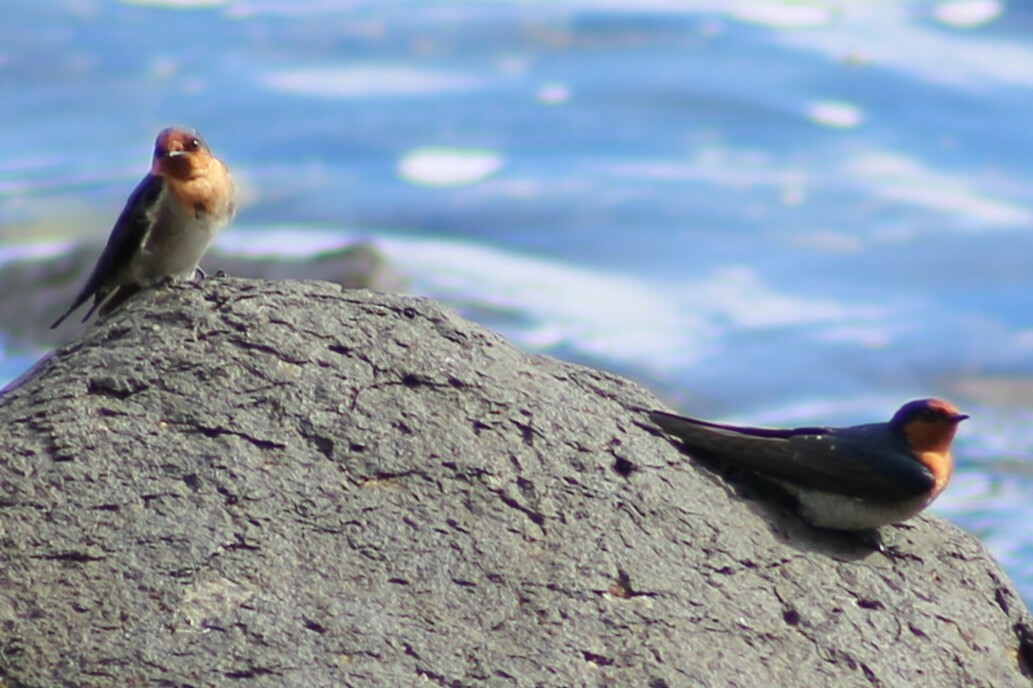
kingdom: Animalia
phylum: Chordata
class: Aves
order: Passeriformes
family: Hirundinidae
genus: Hirundo
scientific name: Hirundo neoxena
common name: Welcome swallow
